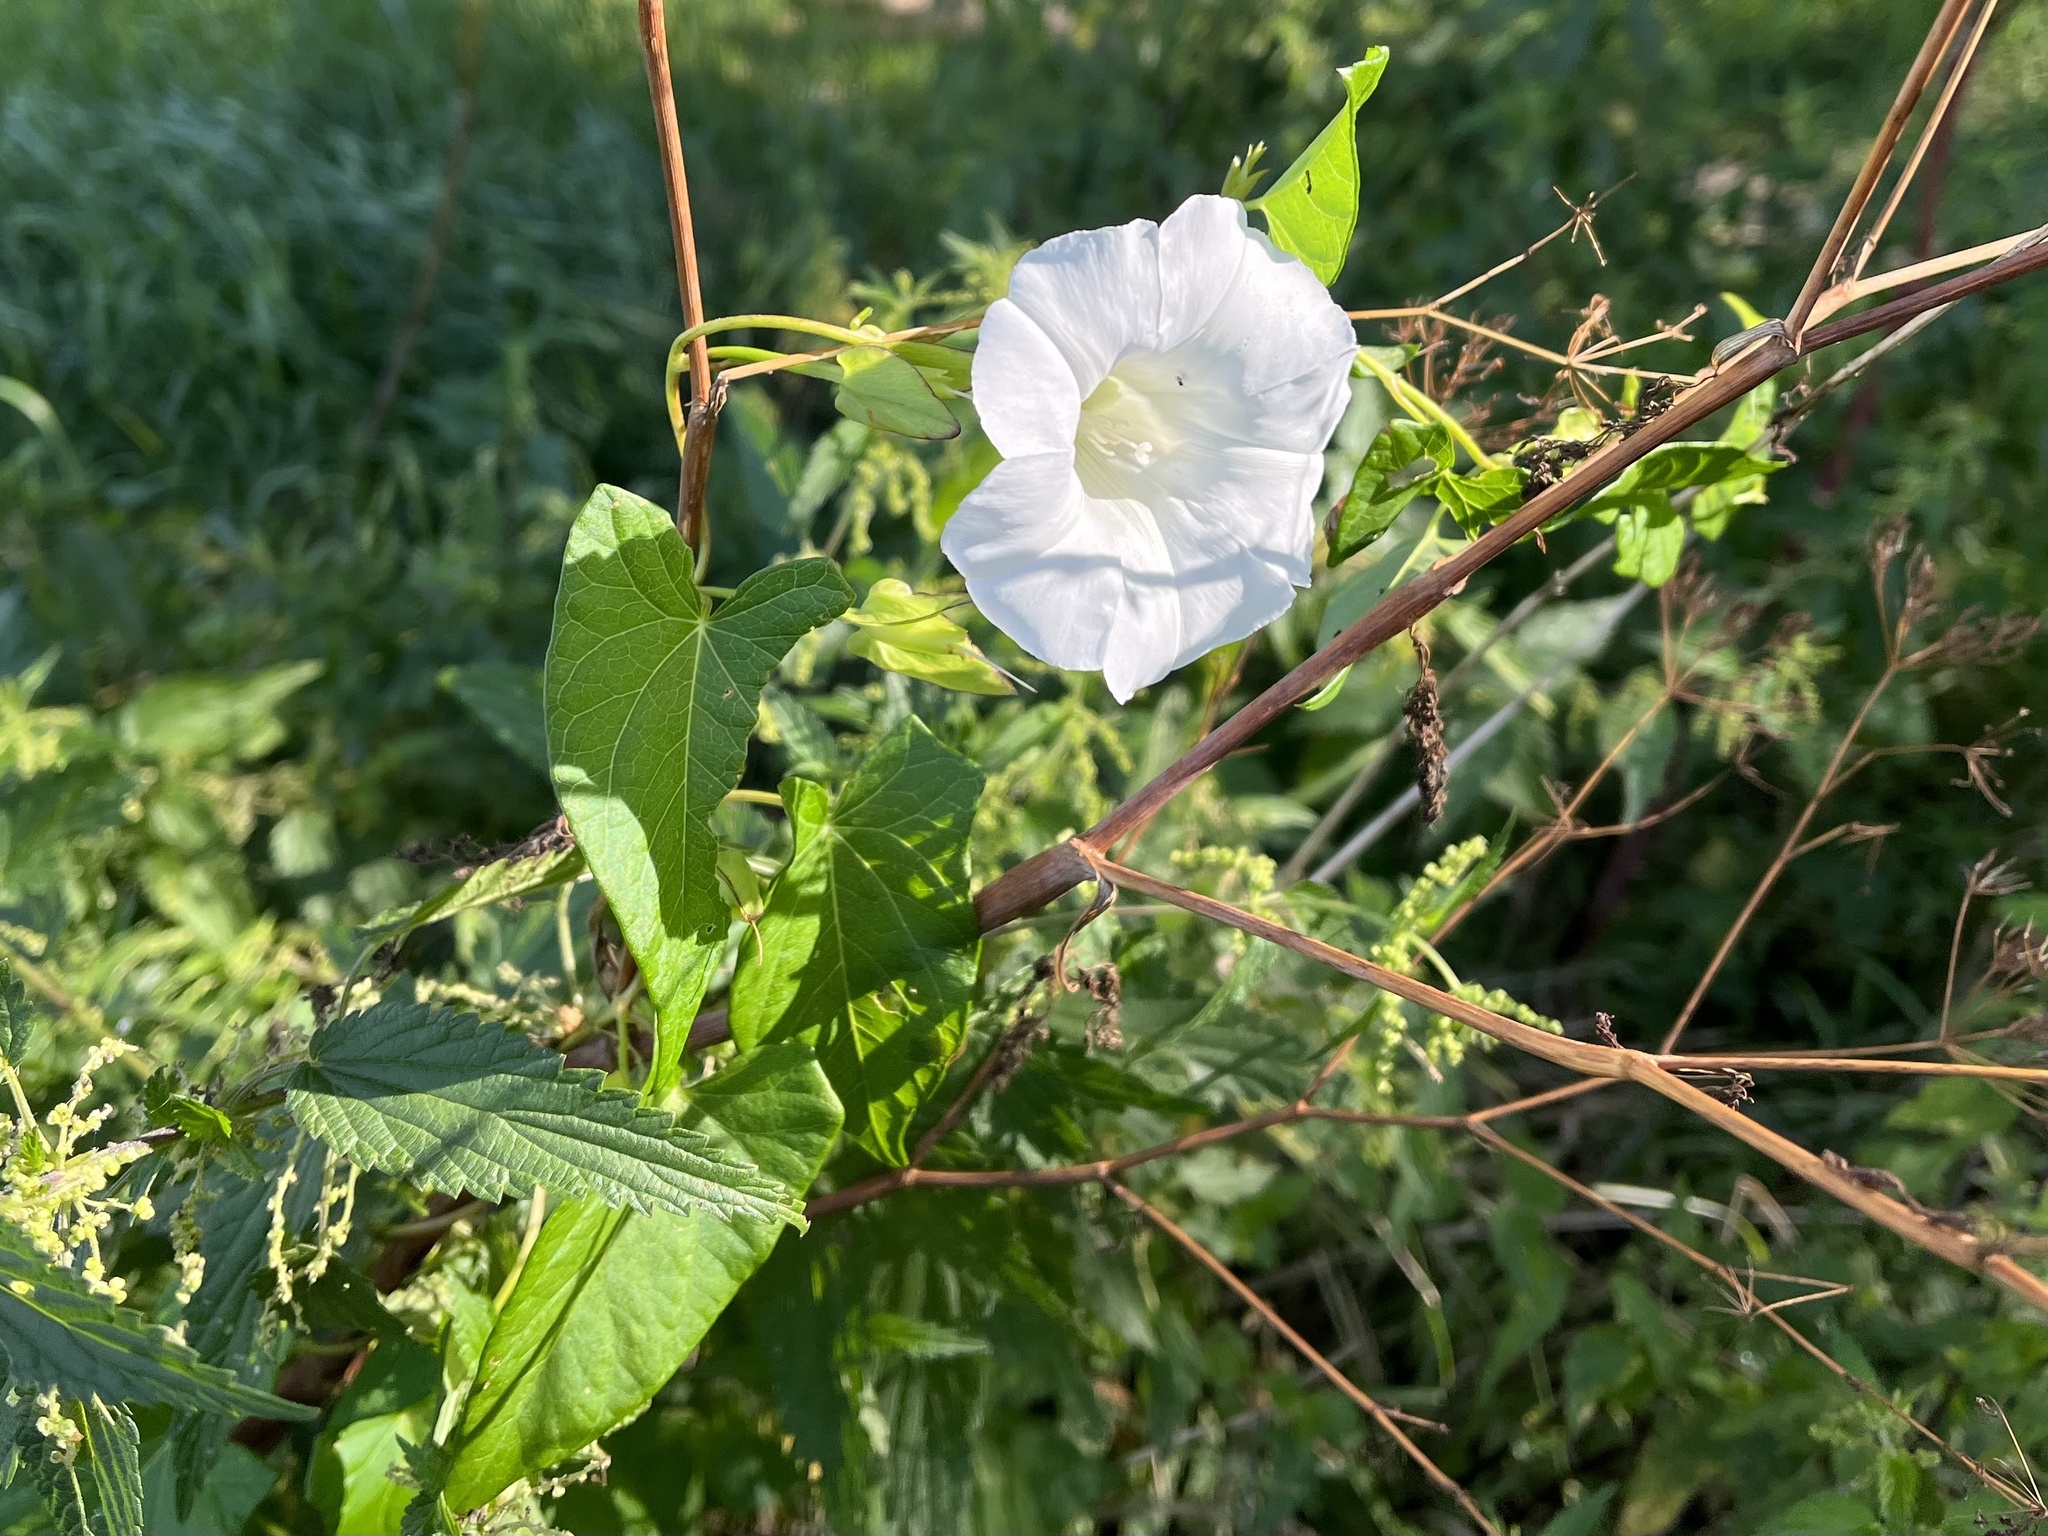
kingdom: Plantae
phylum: Tracheophyta
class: Magnoliopsida
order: Solanales
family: Convolvulaceae
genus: Calystegia
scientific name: Calystegia sepium
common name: Hedge bindweed
